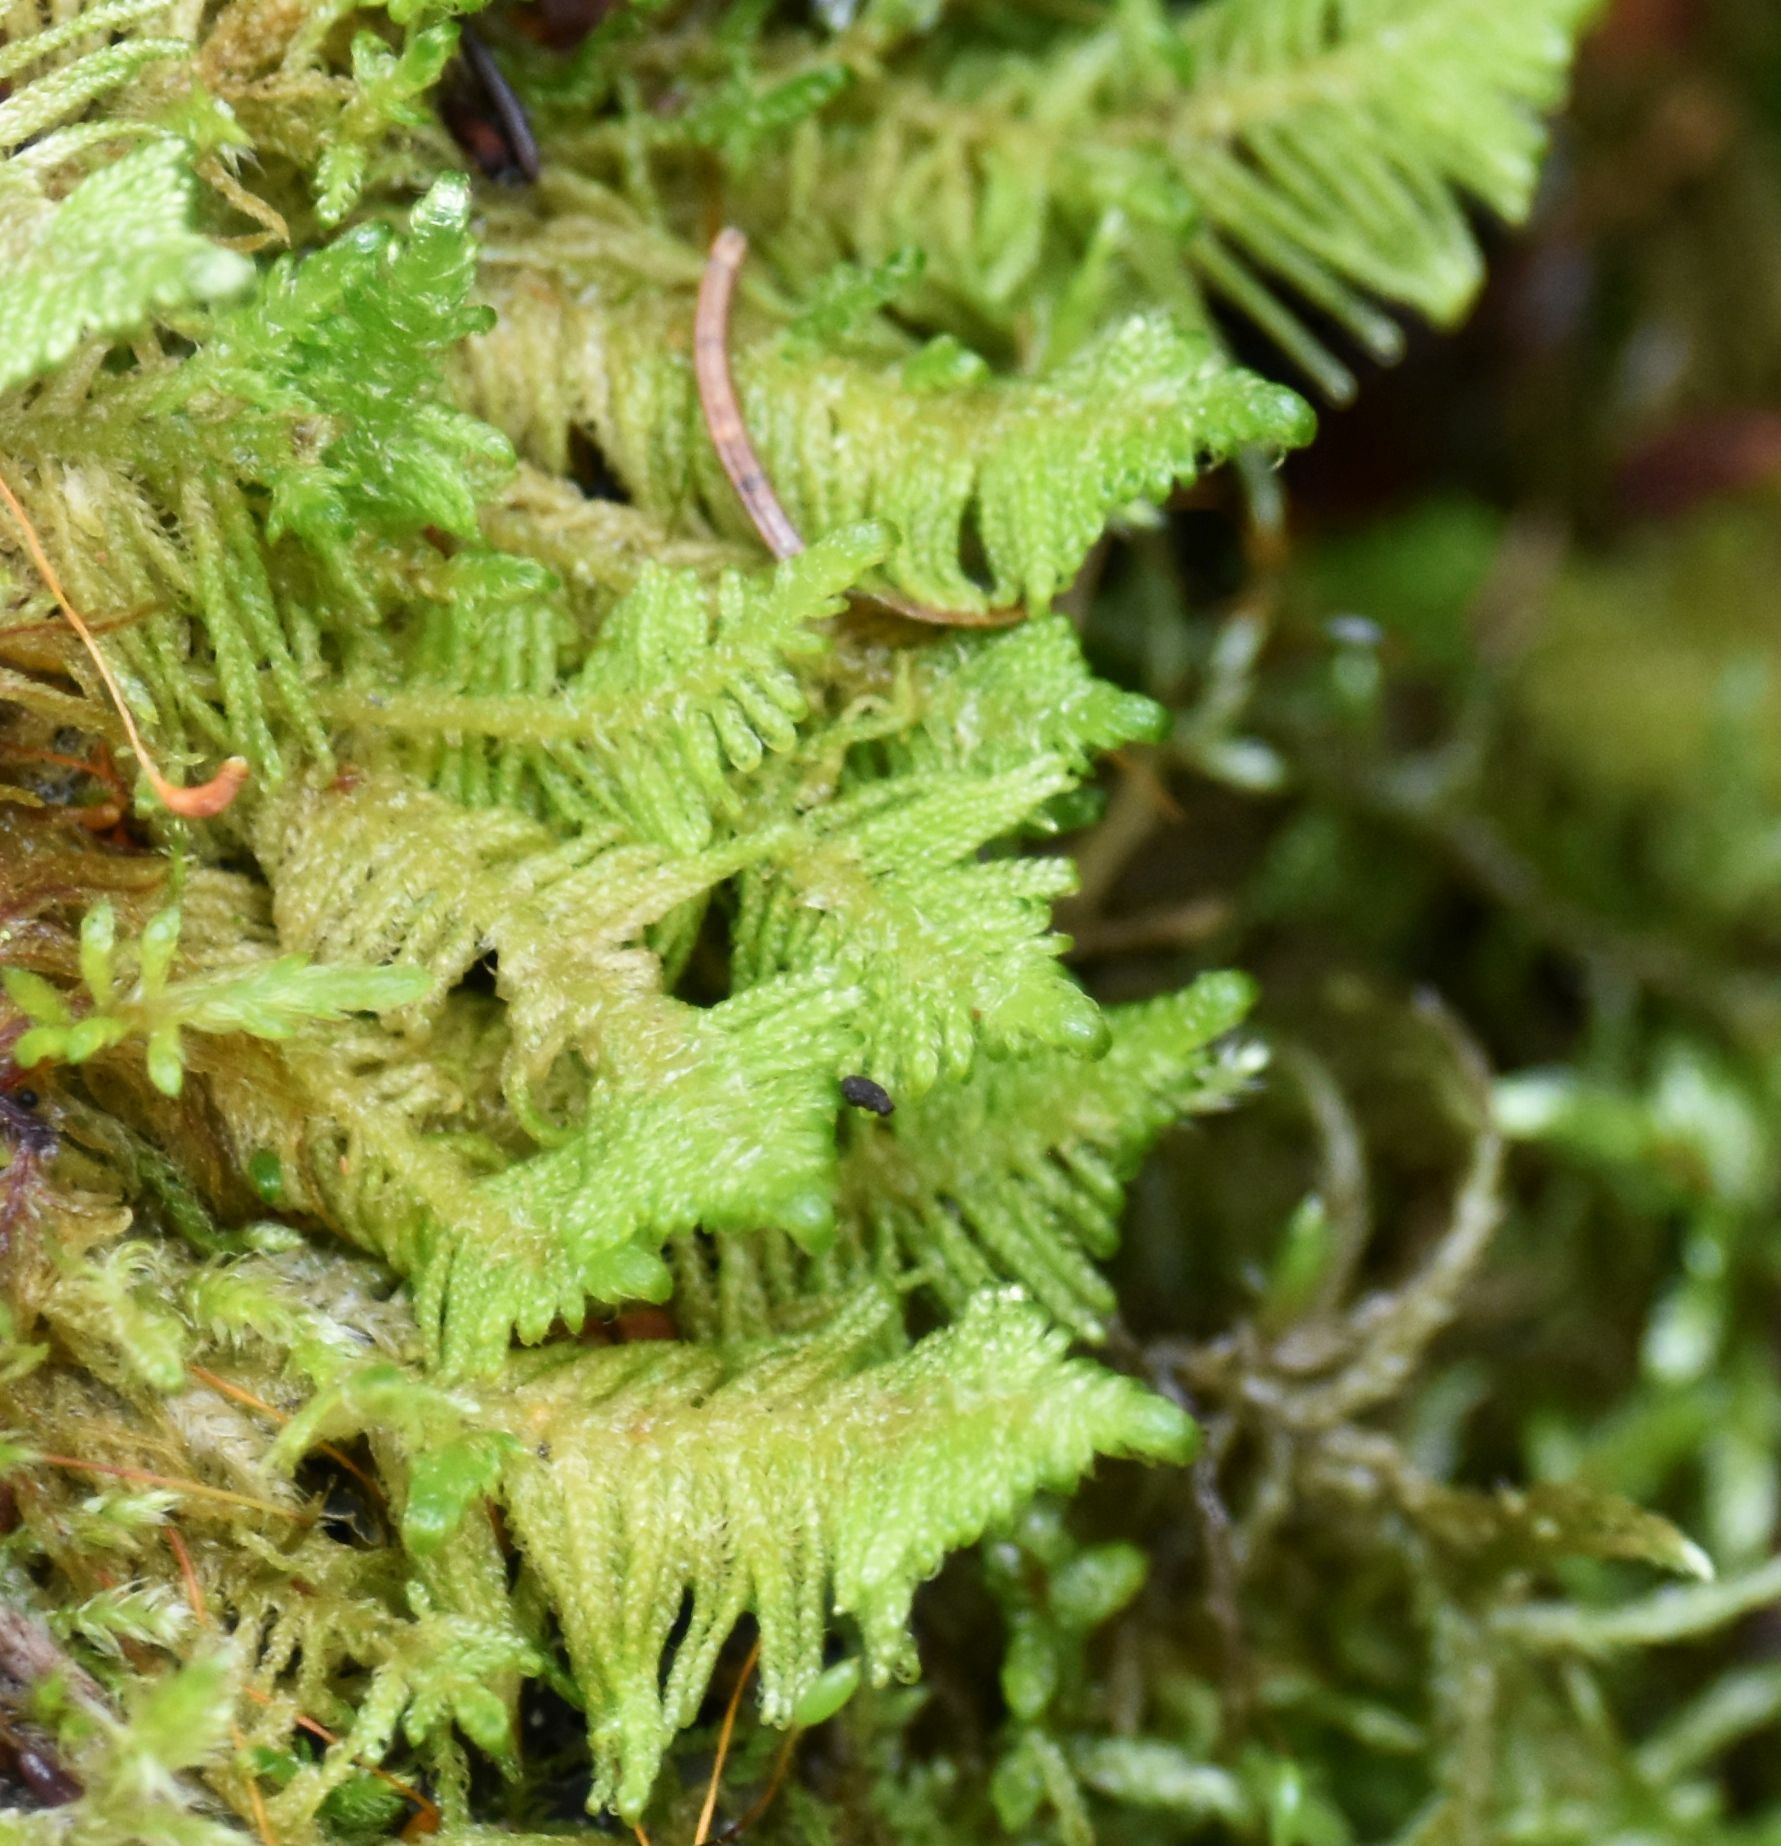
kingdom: Plantae
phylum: Bryophyta
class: Bryopsida
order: Hypnales
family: Pylaisiaceae
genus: Ptilium
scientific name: Ptilium crista-castrensis
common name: Knight's plume moss
